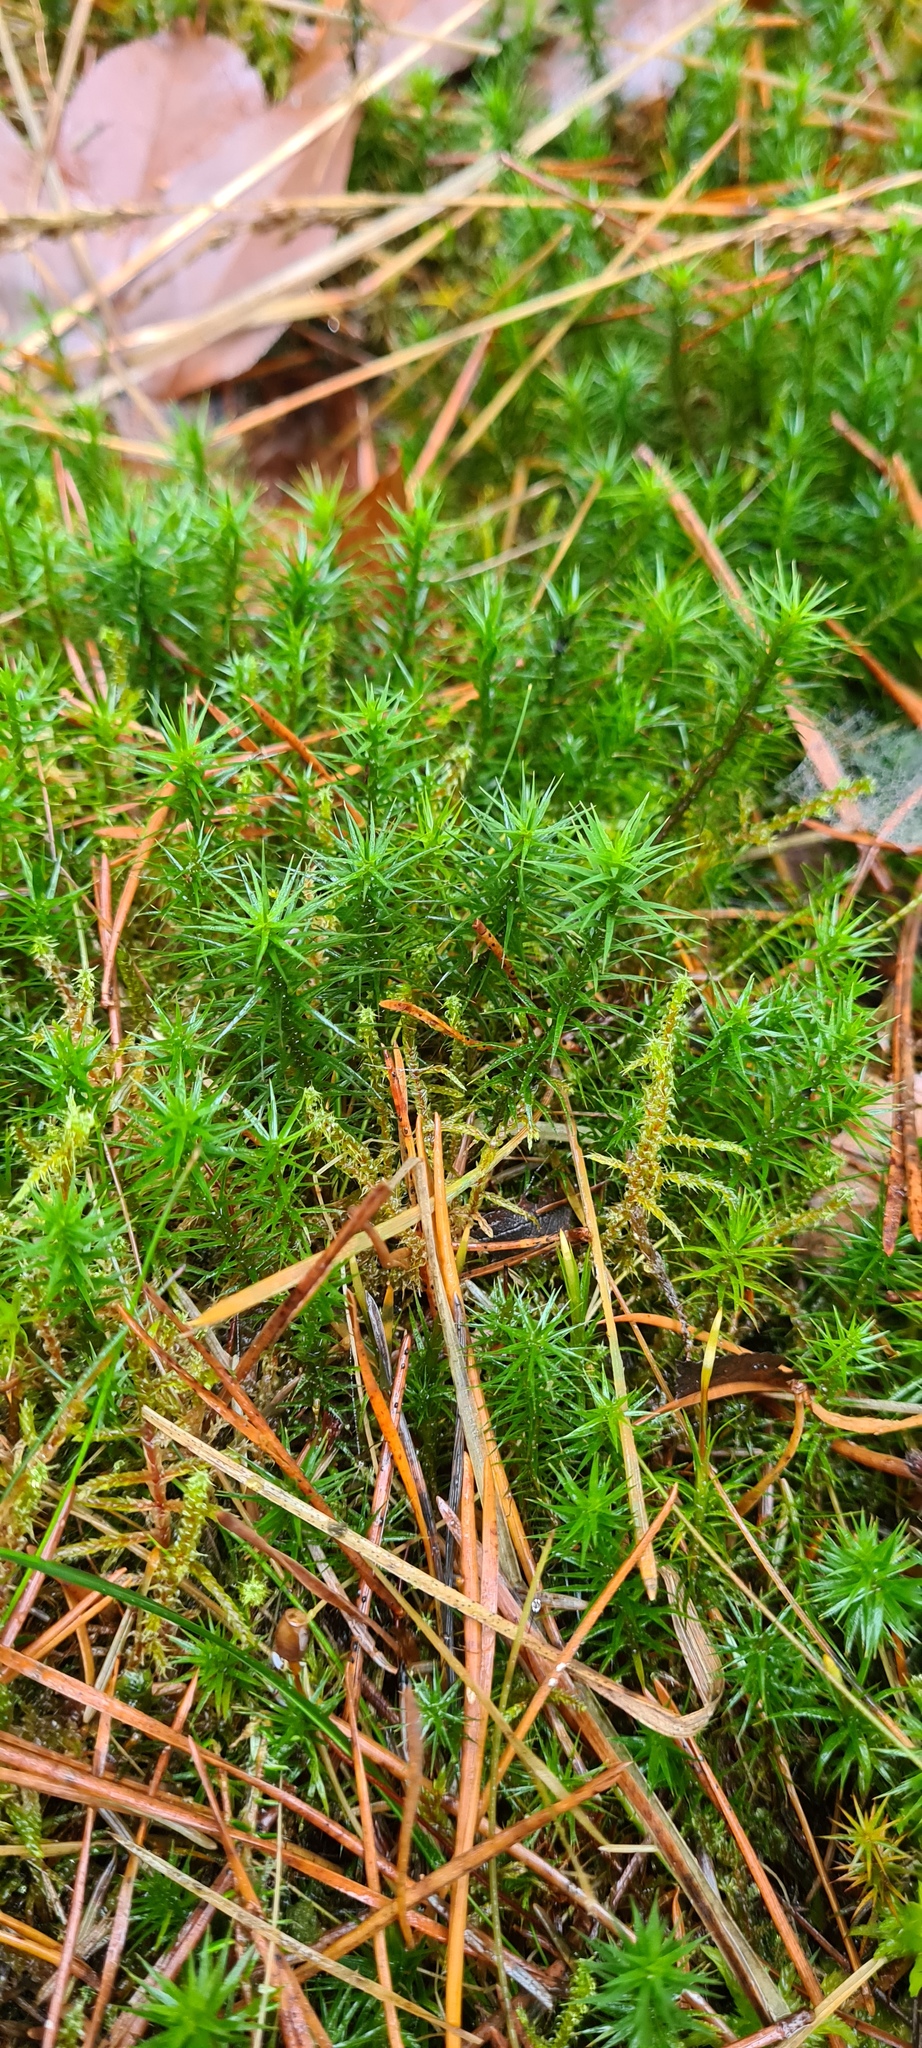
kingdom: Plantae
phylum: Bryophyta
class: Polytrichopsida
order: Polytrichales
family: Polytrichaceae
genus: Polytrichum
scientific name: Polytrichum formosum
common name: Bank haircap moss
